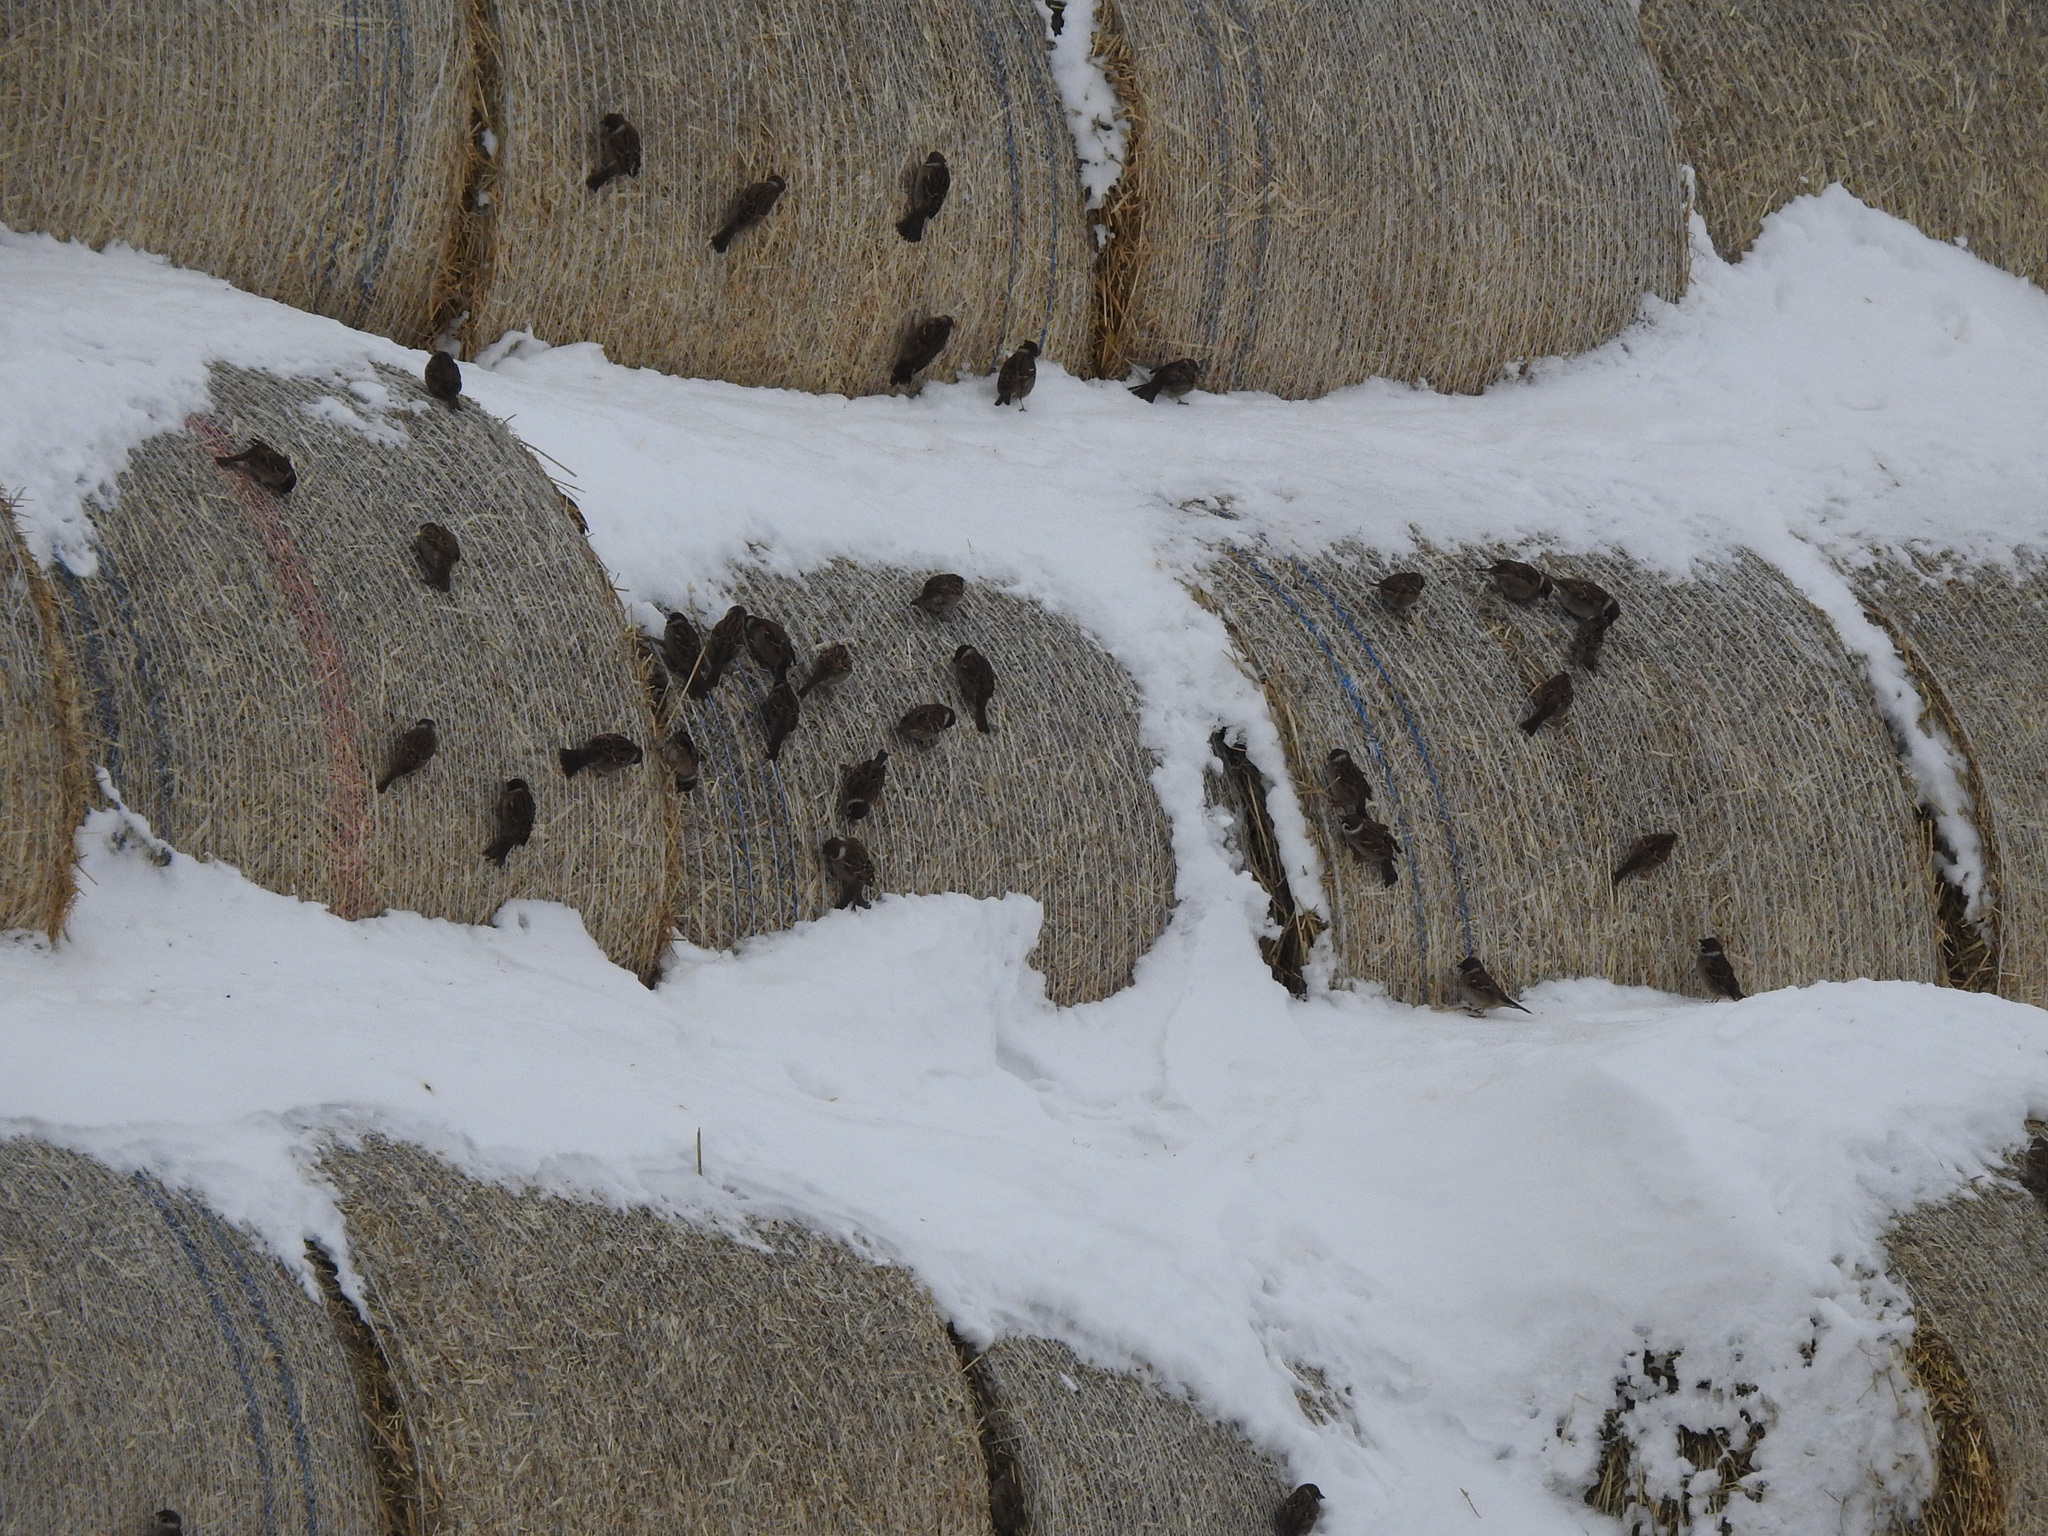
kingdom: Animalia
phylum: Chordata
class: Aves
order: Passeriformes
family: Passeridae
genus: Passer
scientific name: Passer montanus
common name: Eurasian tree sparrow
